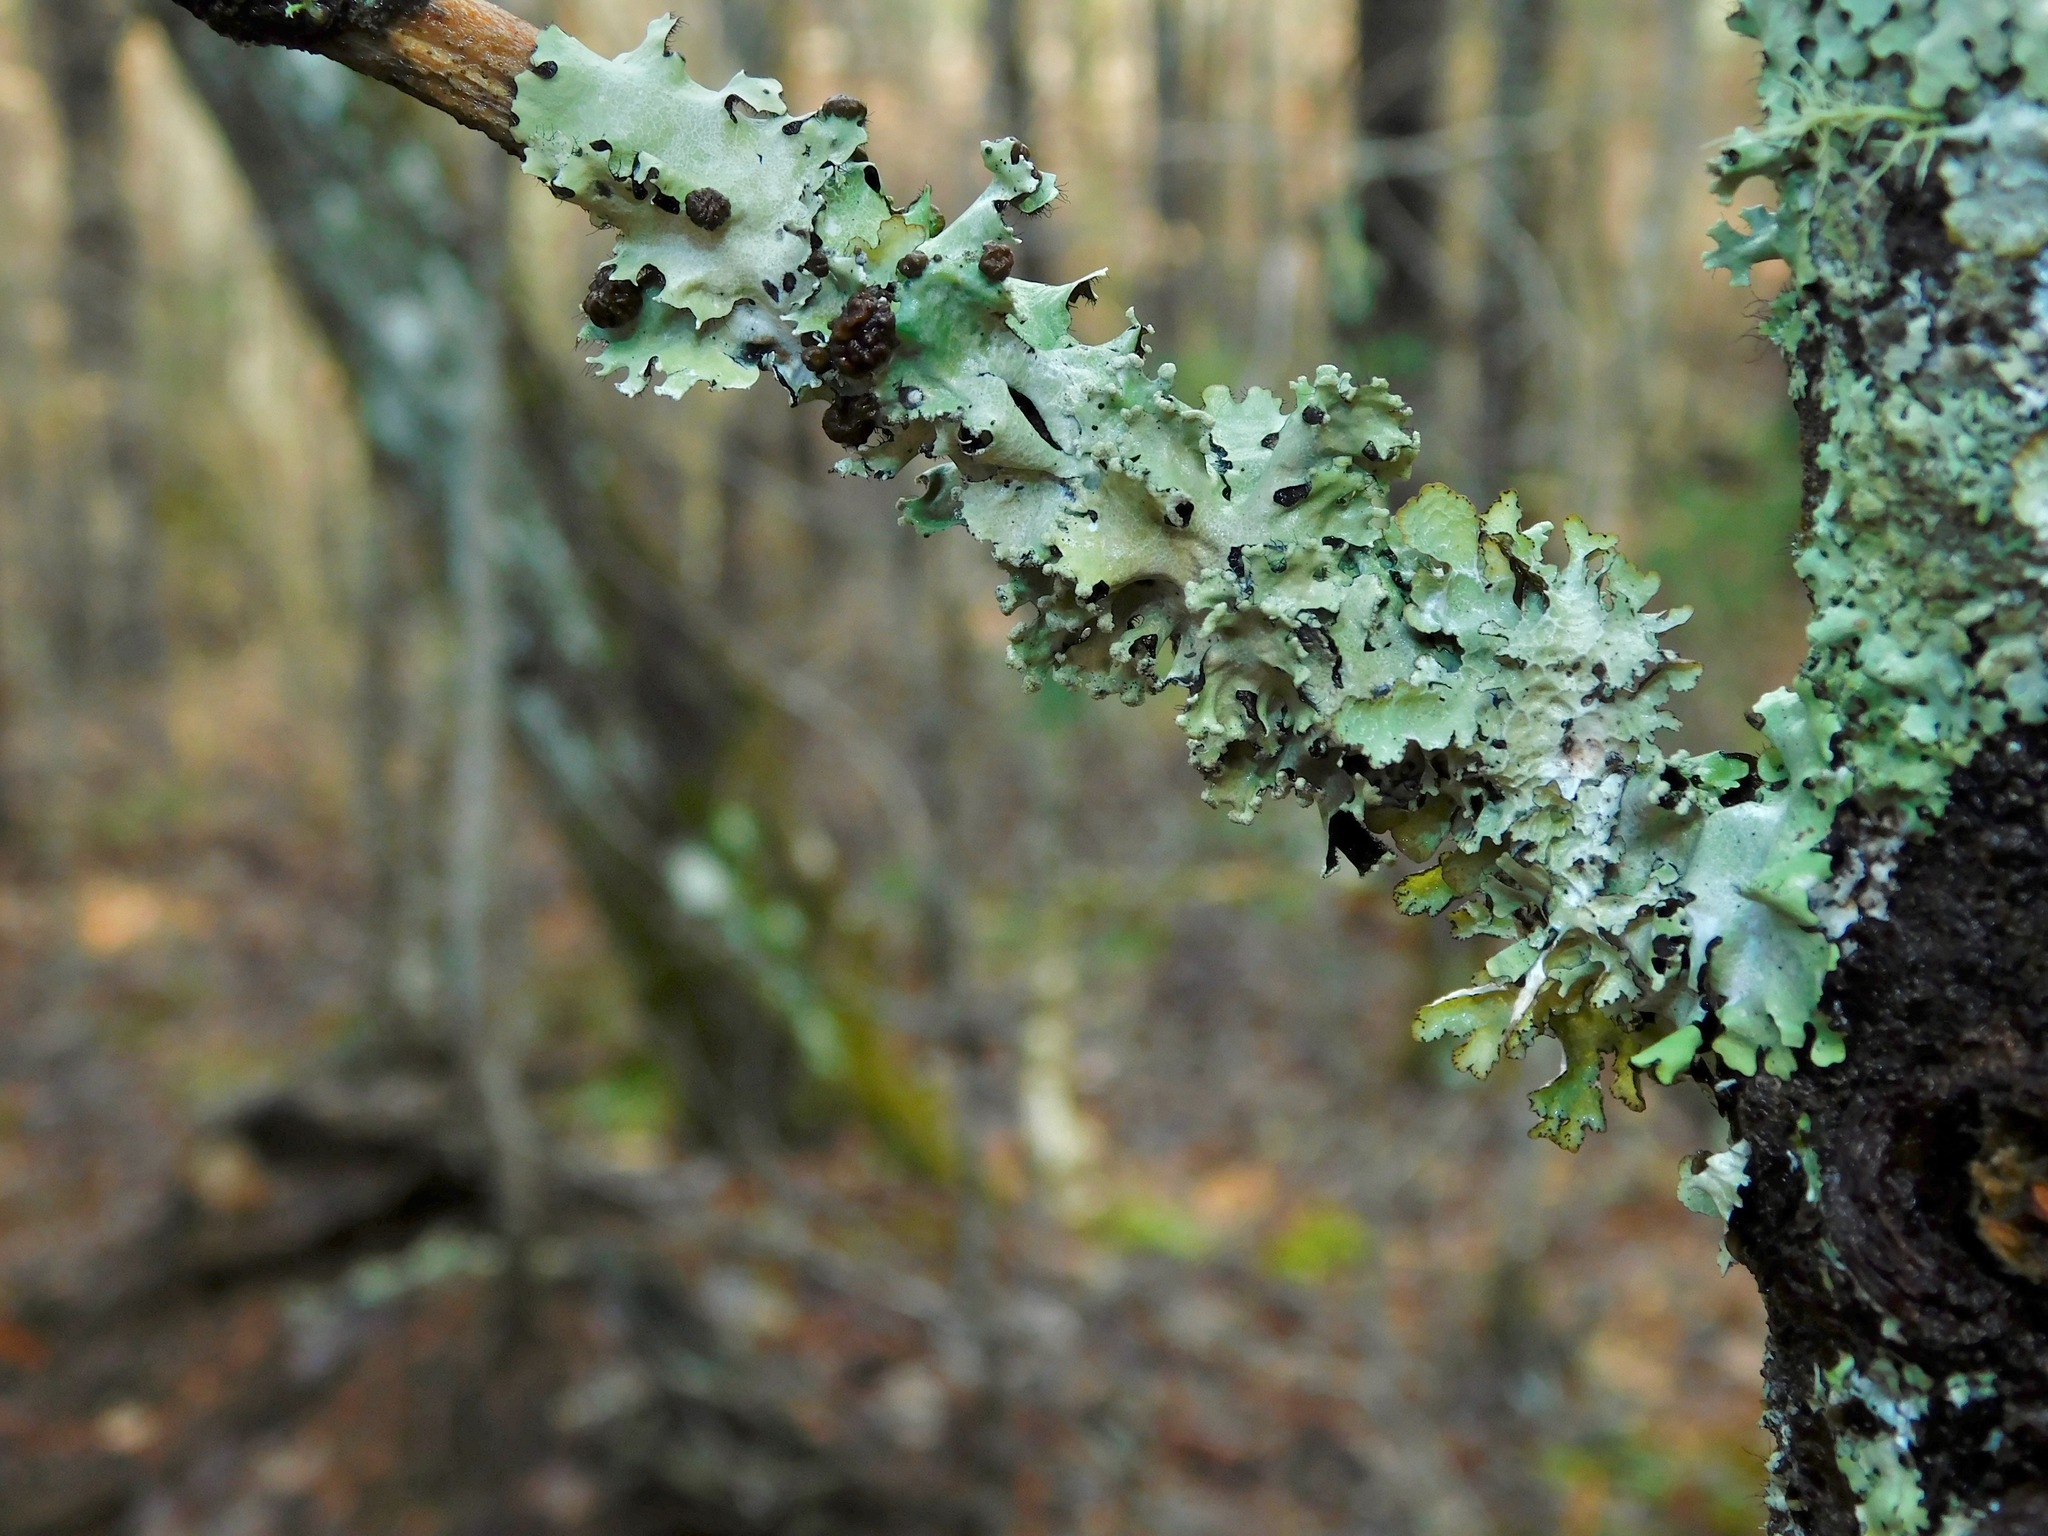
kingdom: Fungi
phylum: Basidiomycota
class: Tremellomycetes
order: Tremellales
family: Tremellaceae
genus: Tremella
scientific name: Tremella parmeliarum
